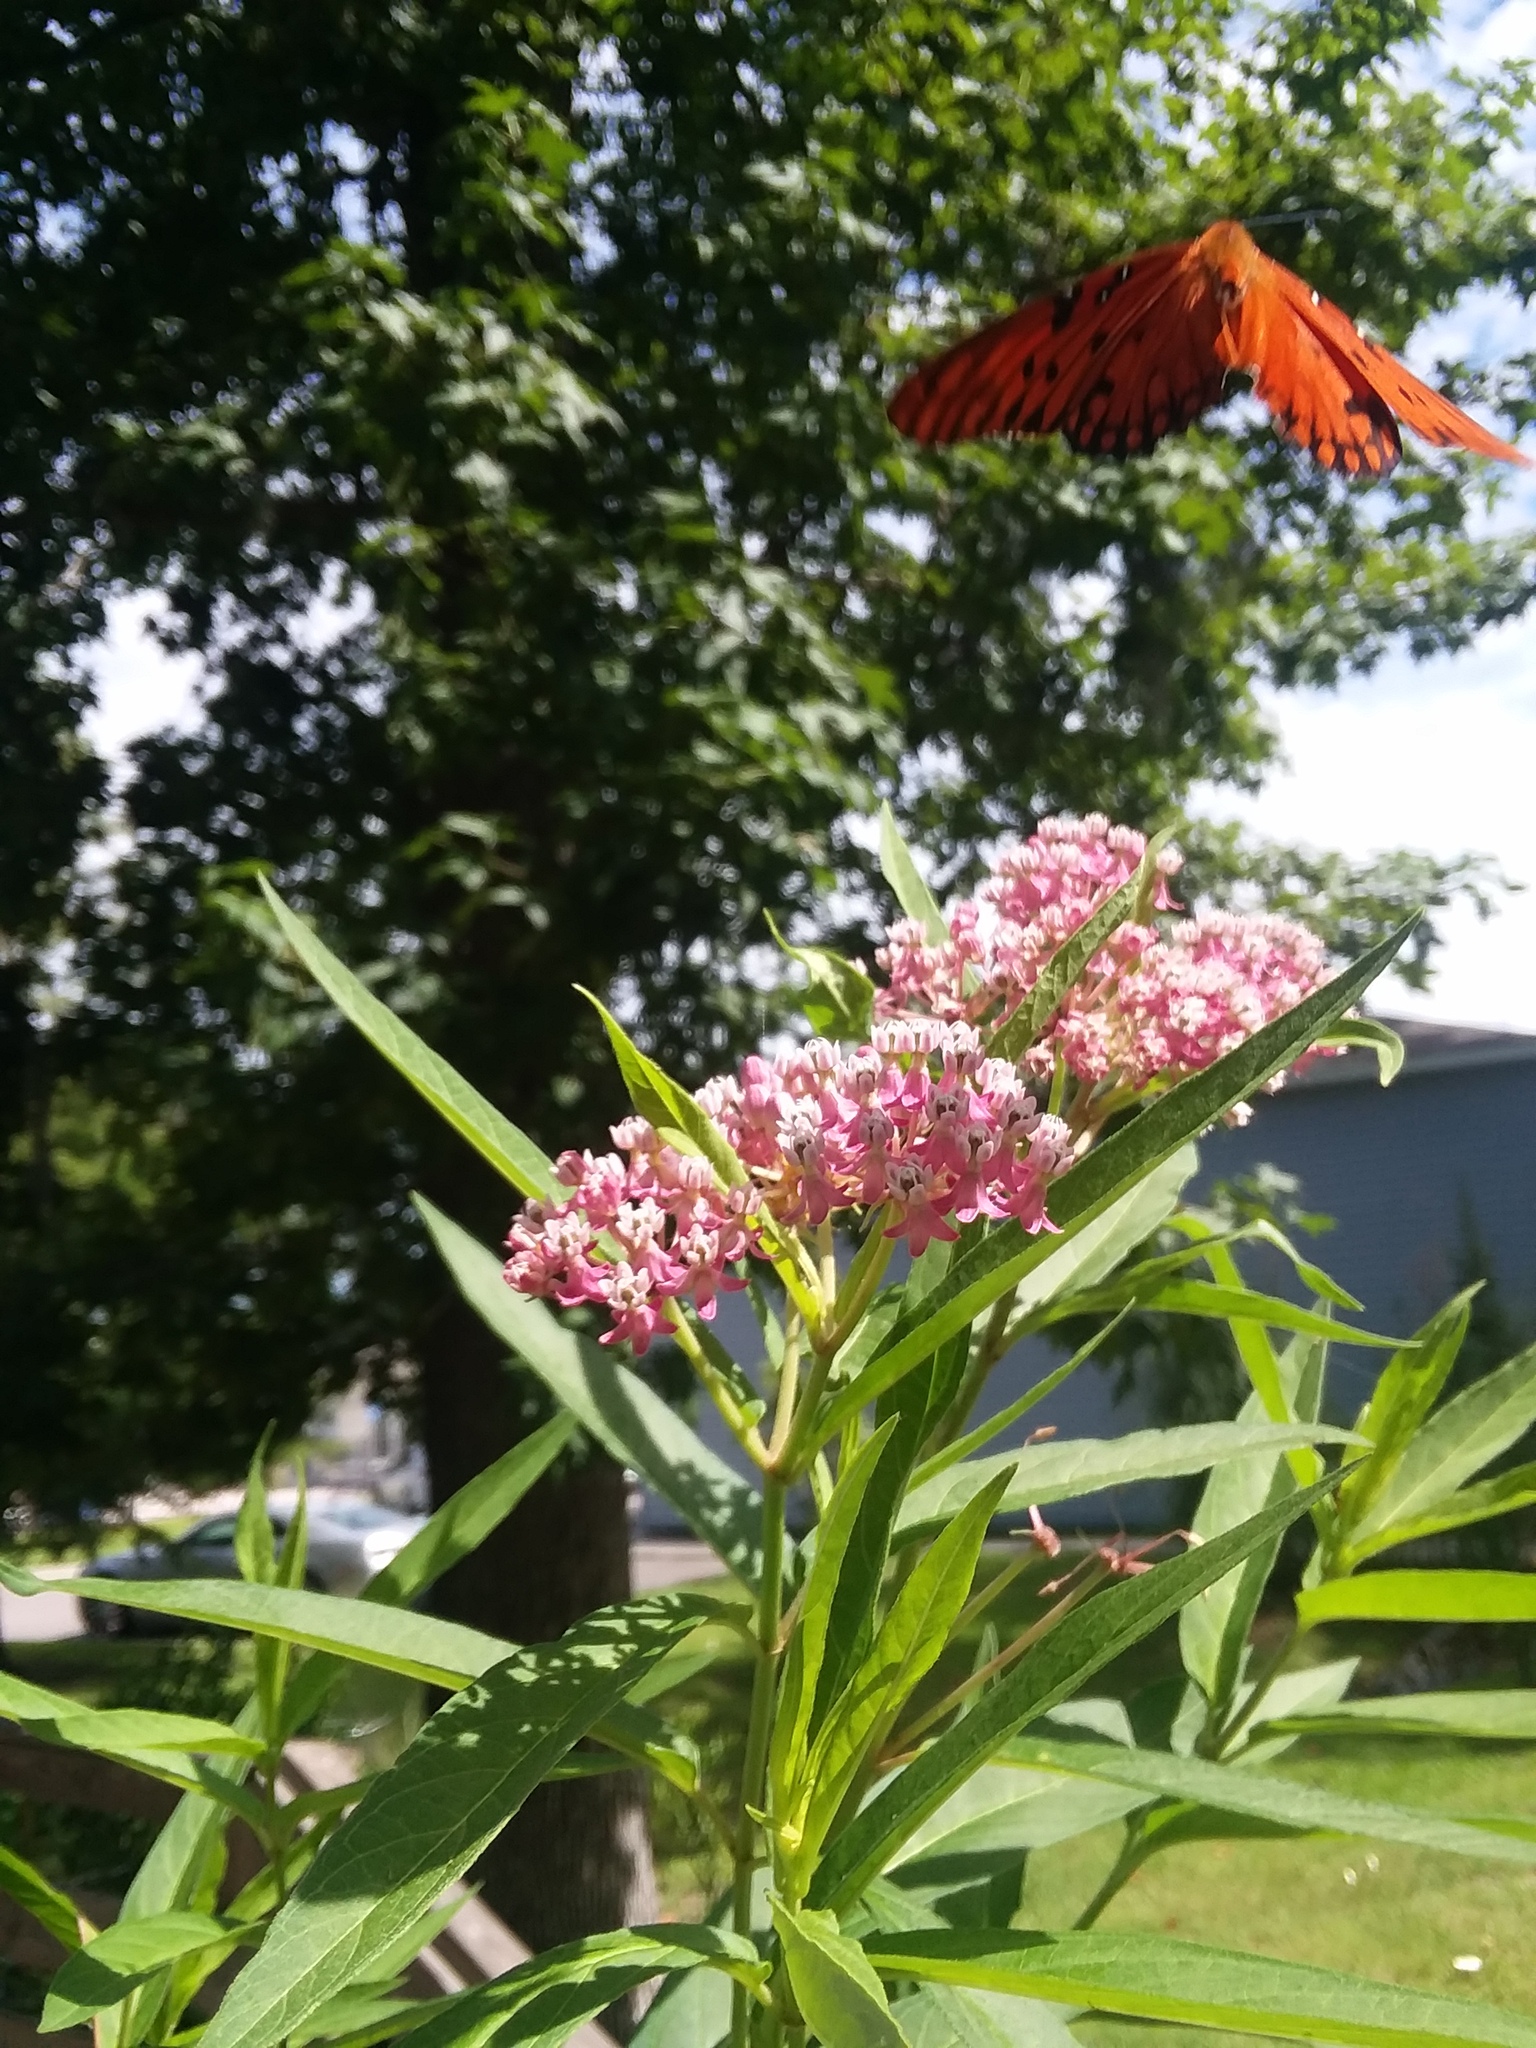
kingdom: Animalia
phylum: Arthropoda
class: Insecta
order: Lepidoptera
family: Nymphalidae
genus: Dione
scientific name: Dione vanillae
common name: Gulf fritillary
